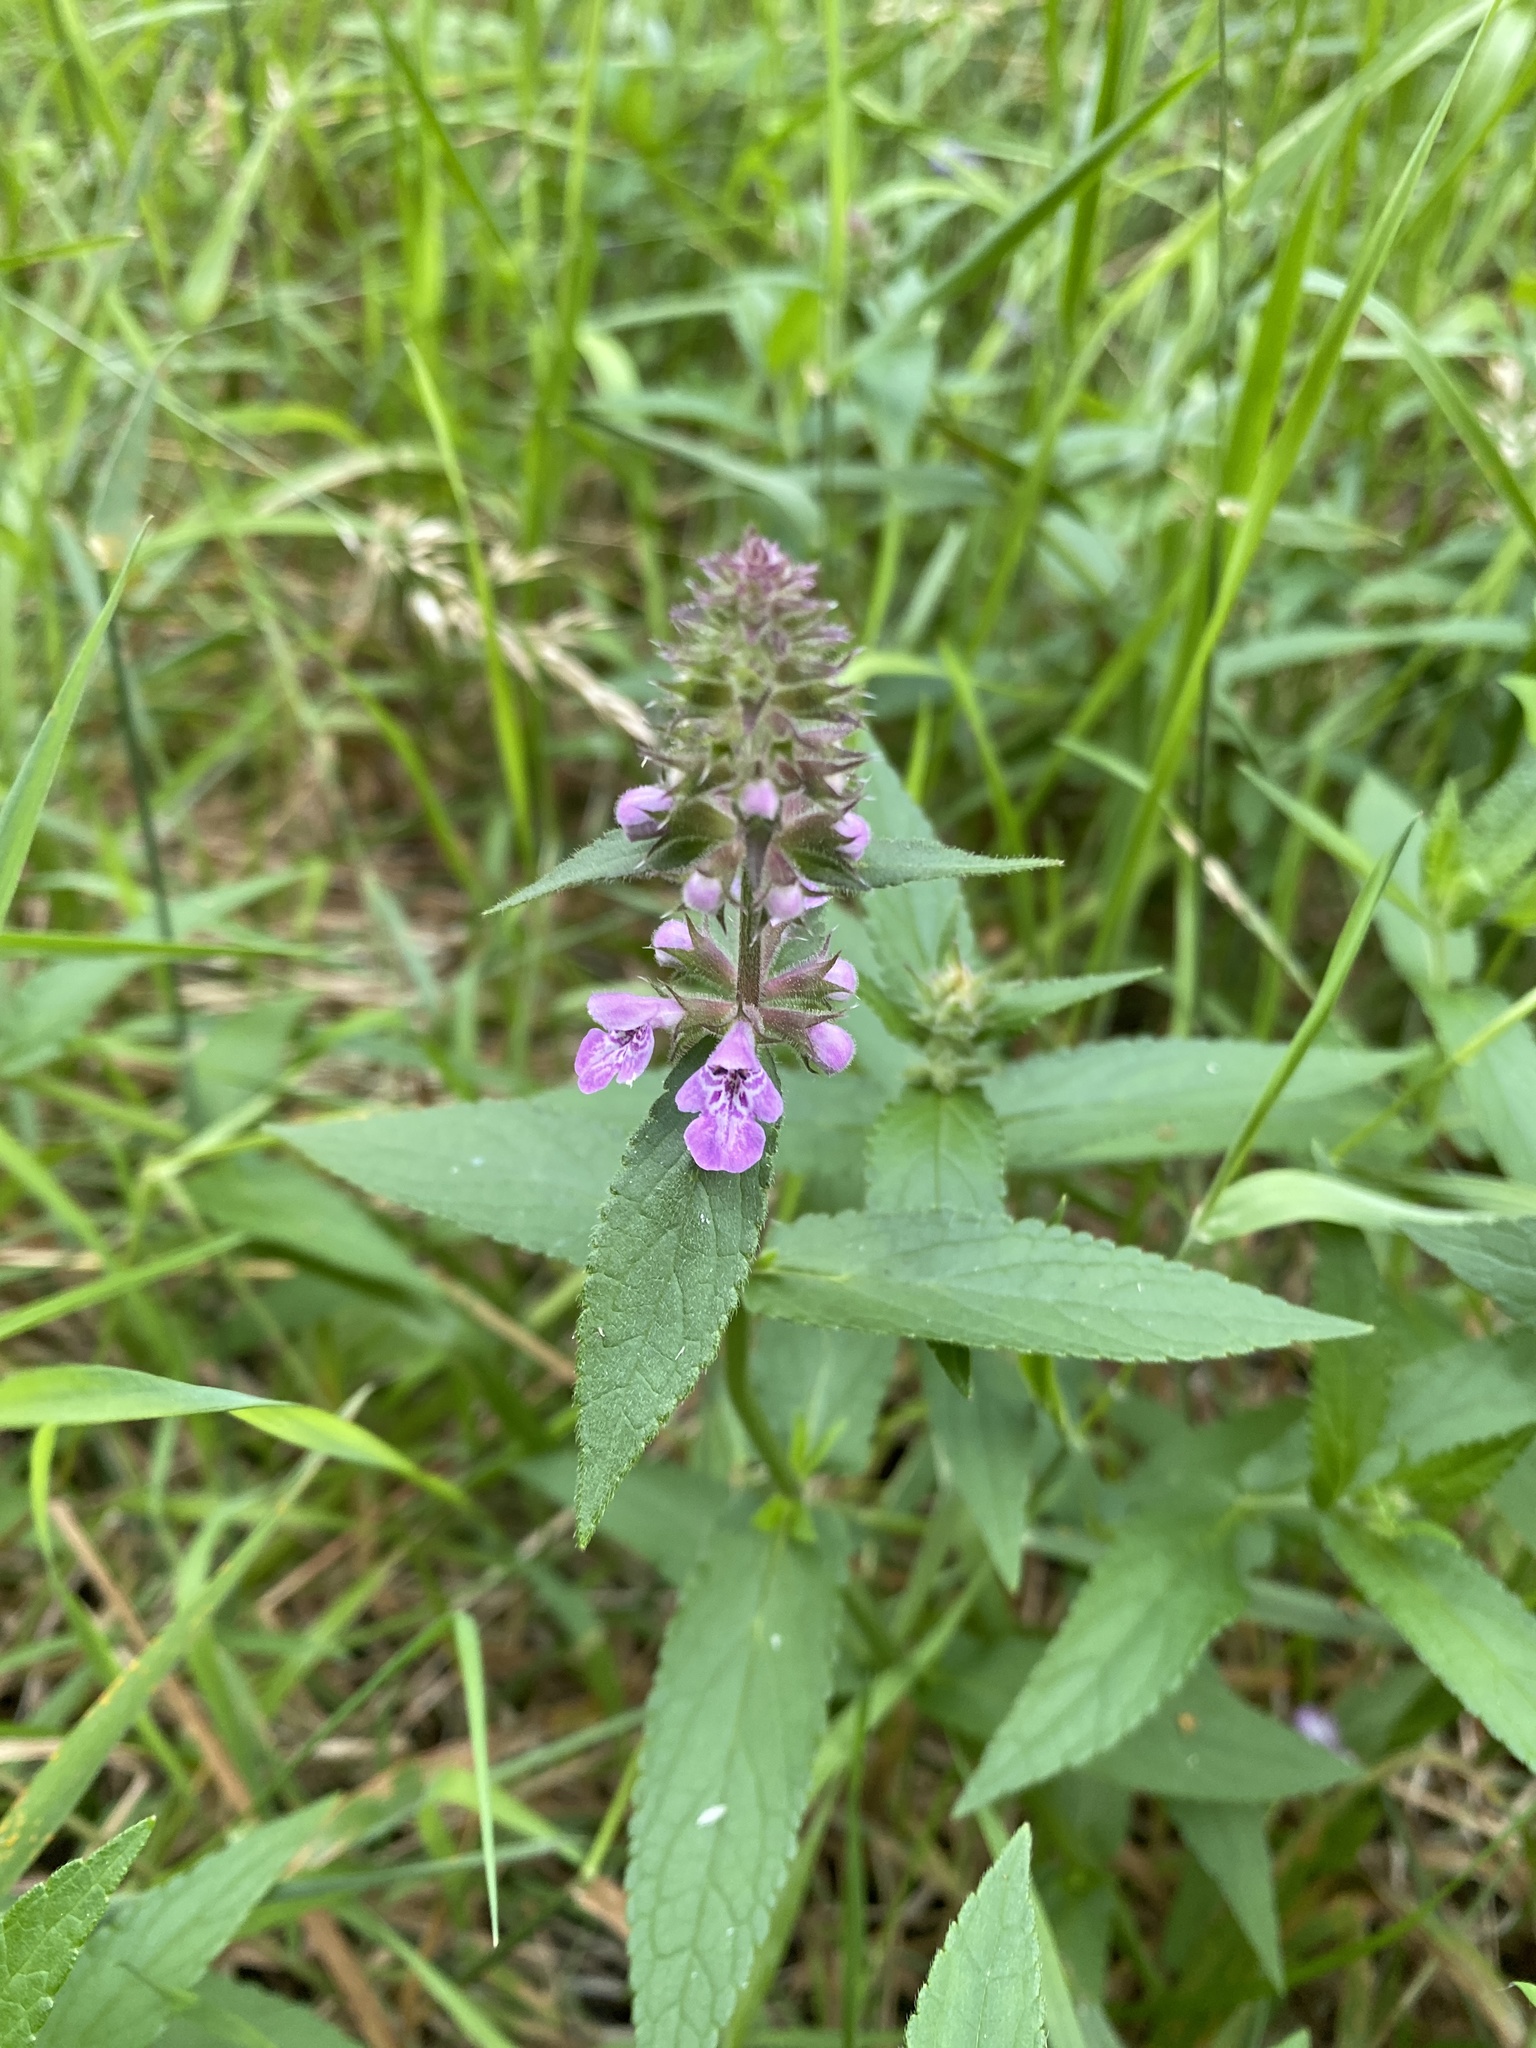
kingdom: Plantae
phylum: Tracheophyta
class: Magnoliopsida
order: Lamiales
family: Lamiaceae
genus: Stachys
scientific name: Stachys palustris
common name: Marsh woundwort
